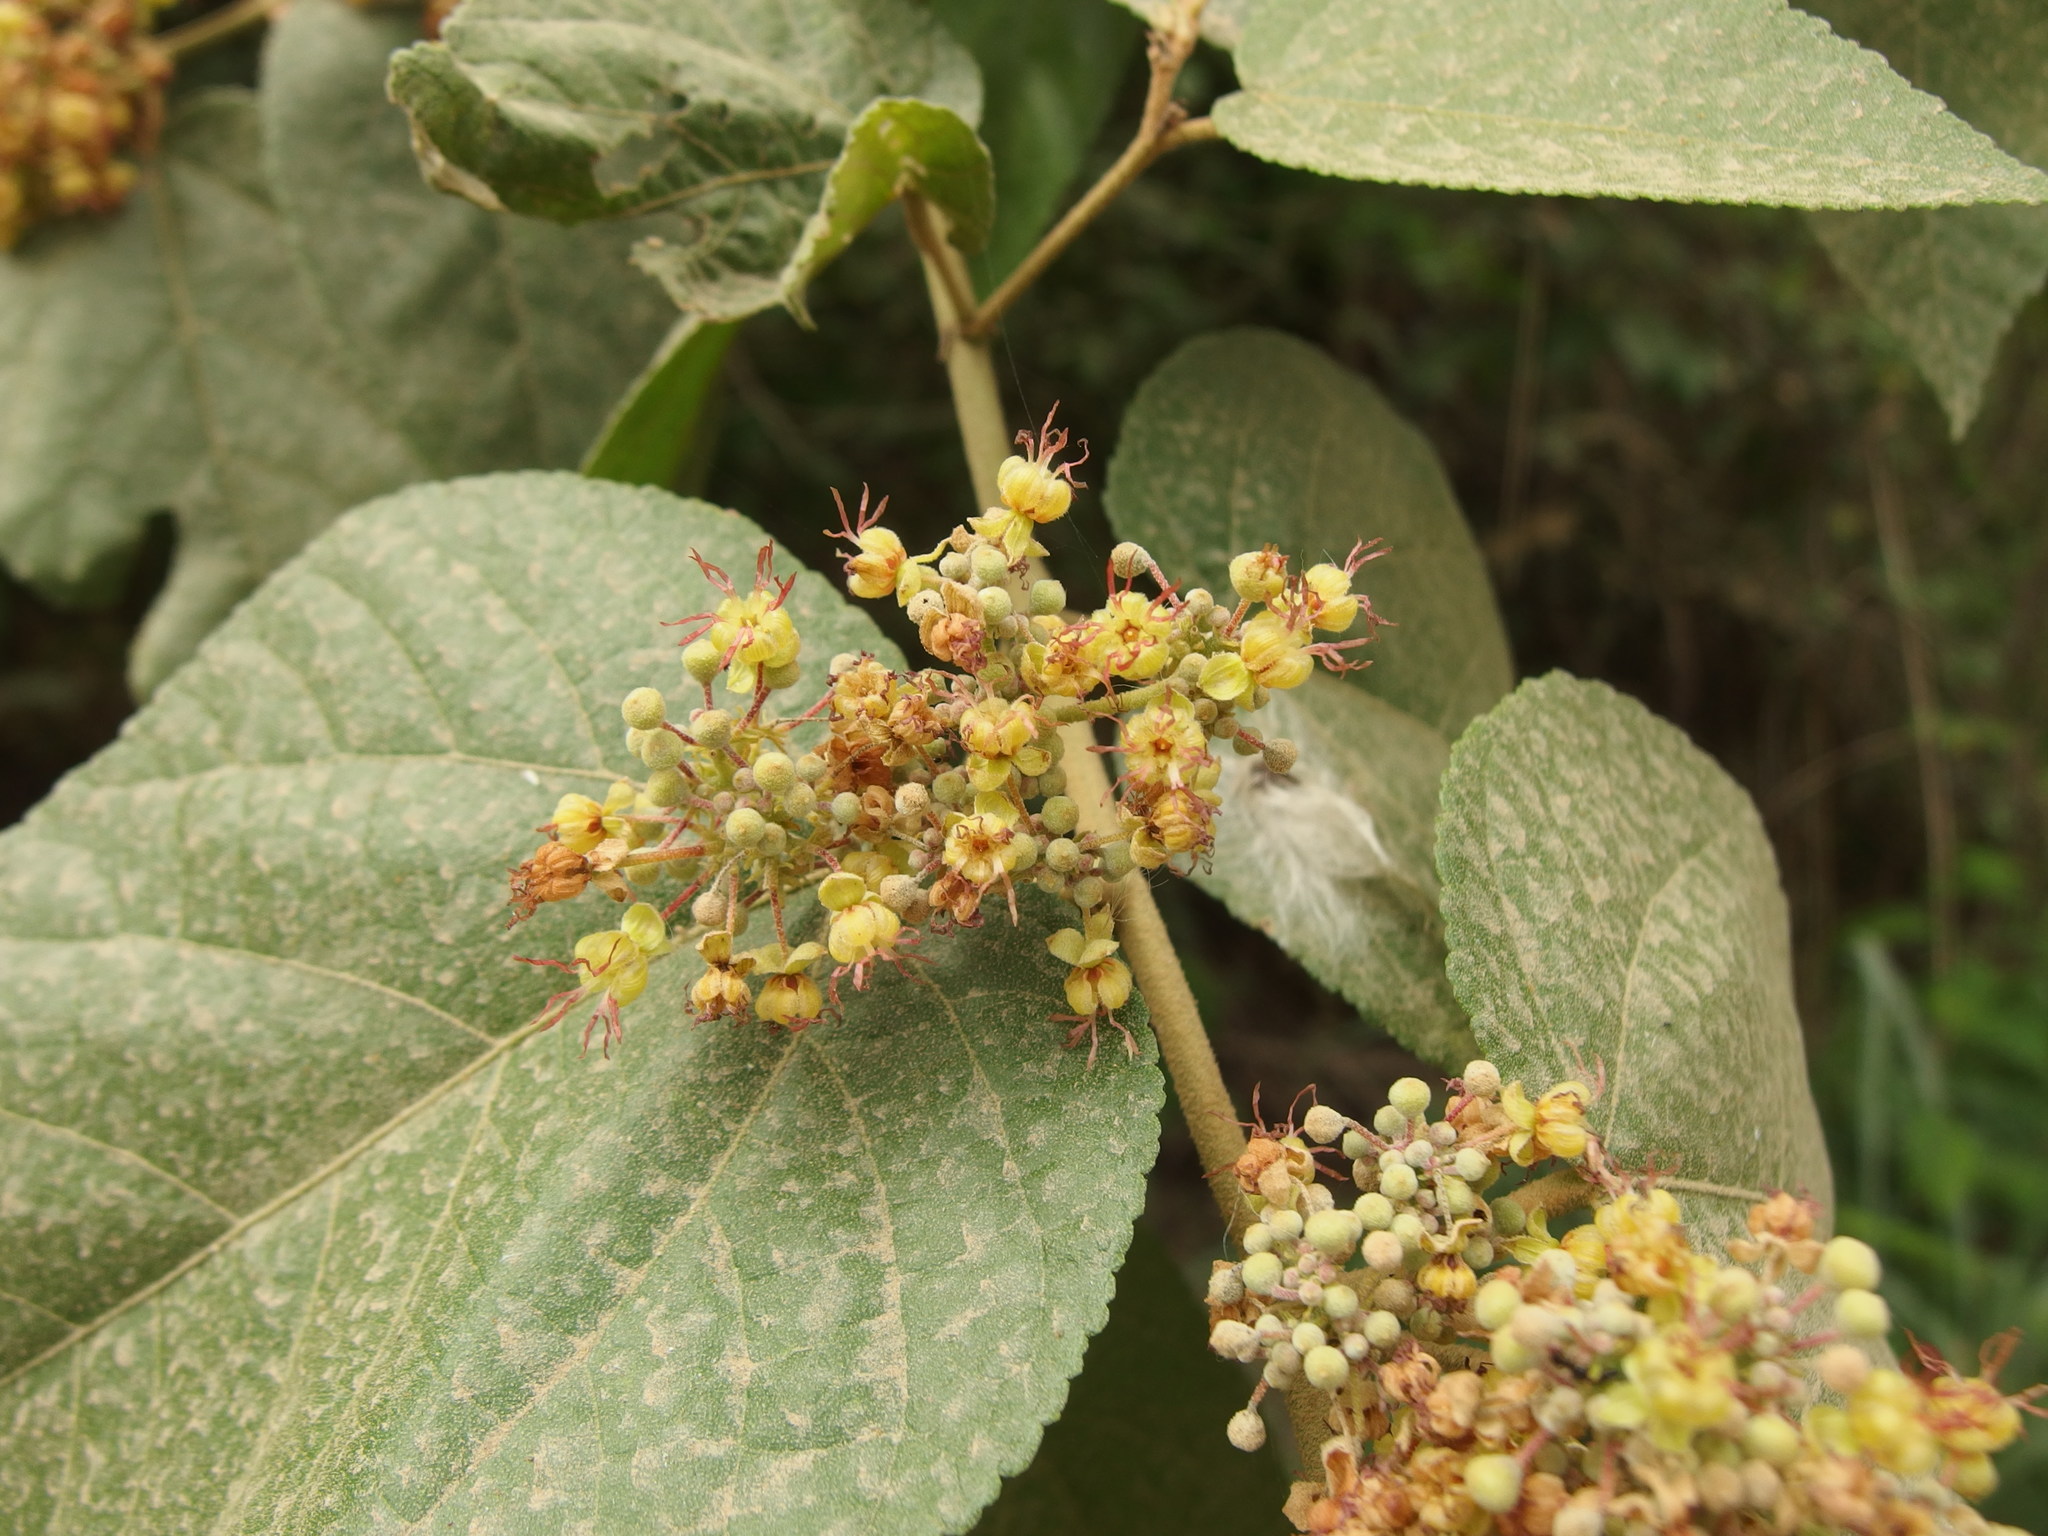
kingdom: Plantae
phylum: Tracheophyta
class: Magnoliopsida
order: Malvales
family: Malvaceae
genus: Guazuma
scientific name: Guazuma ulmifolia
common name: Bastard-cedar
